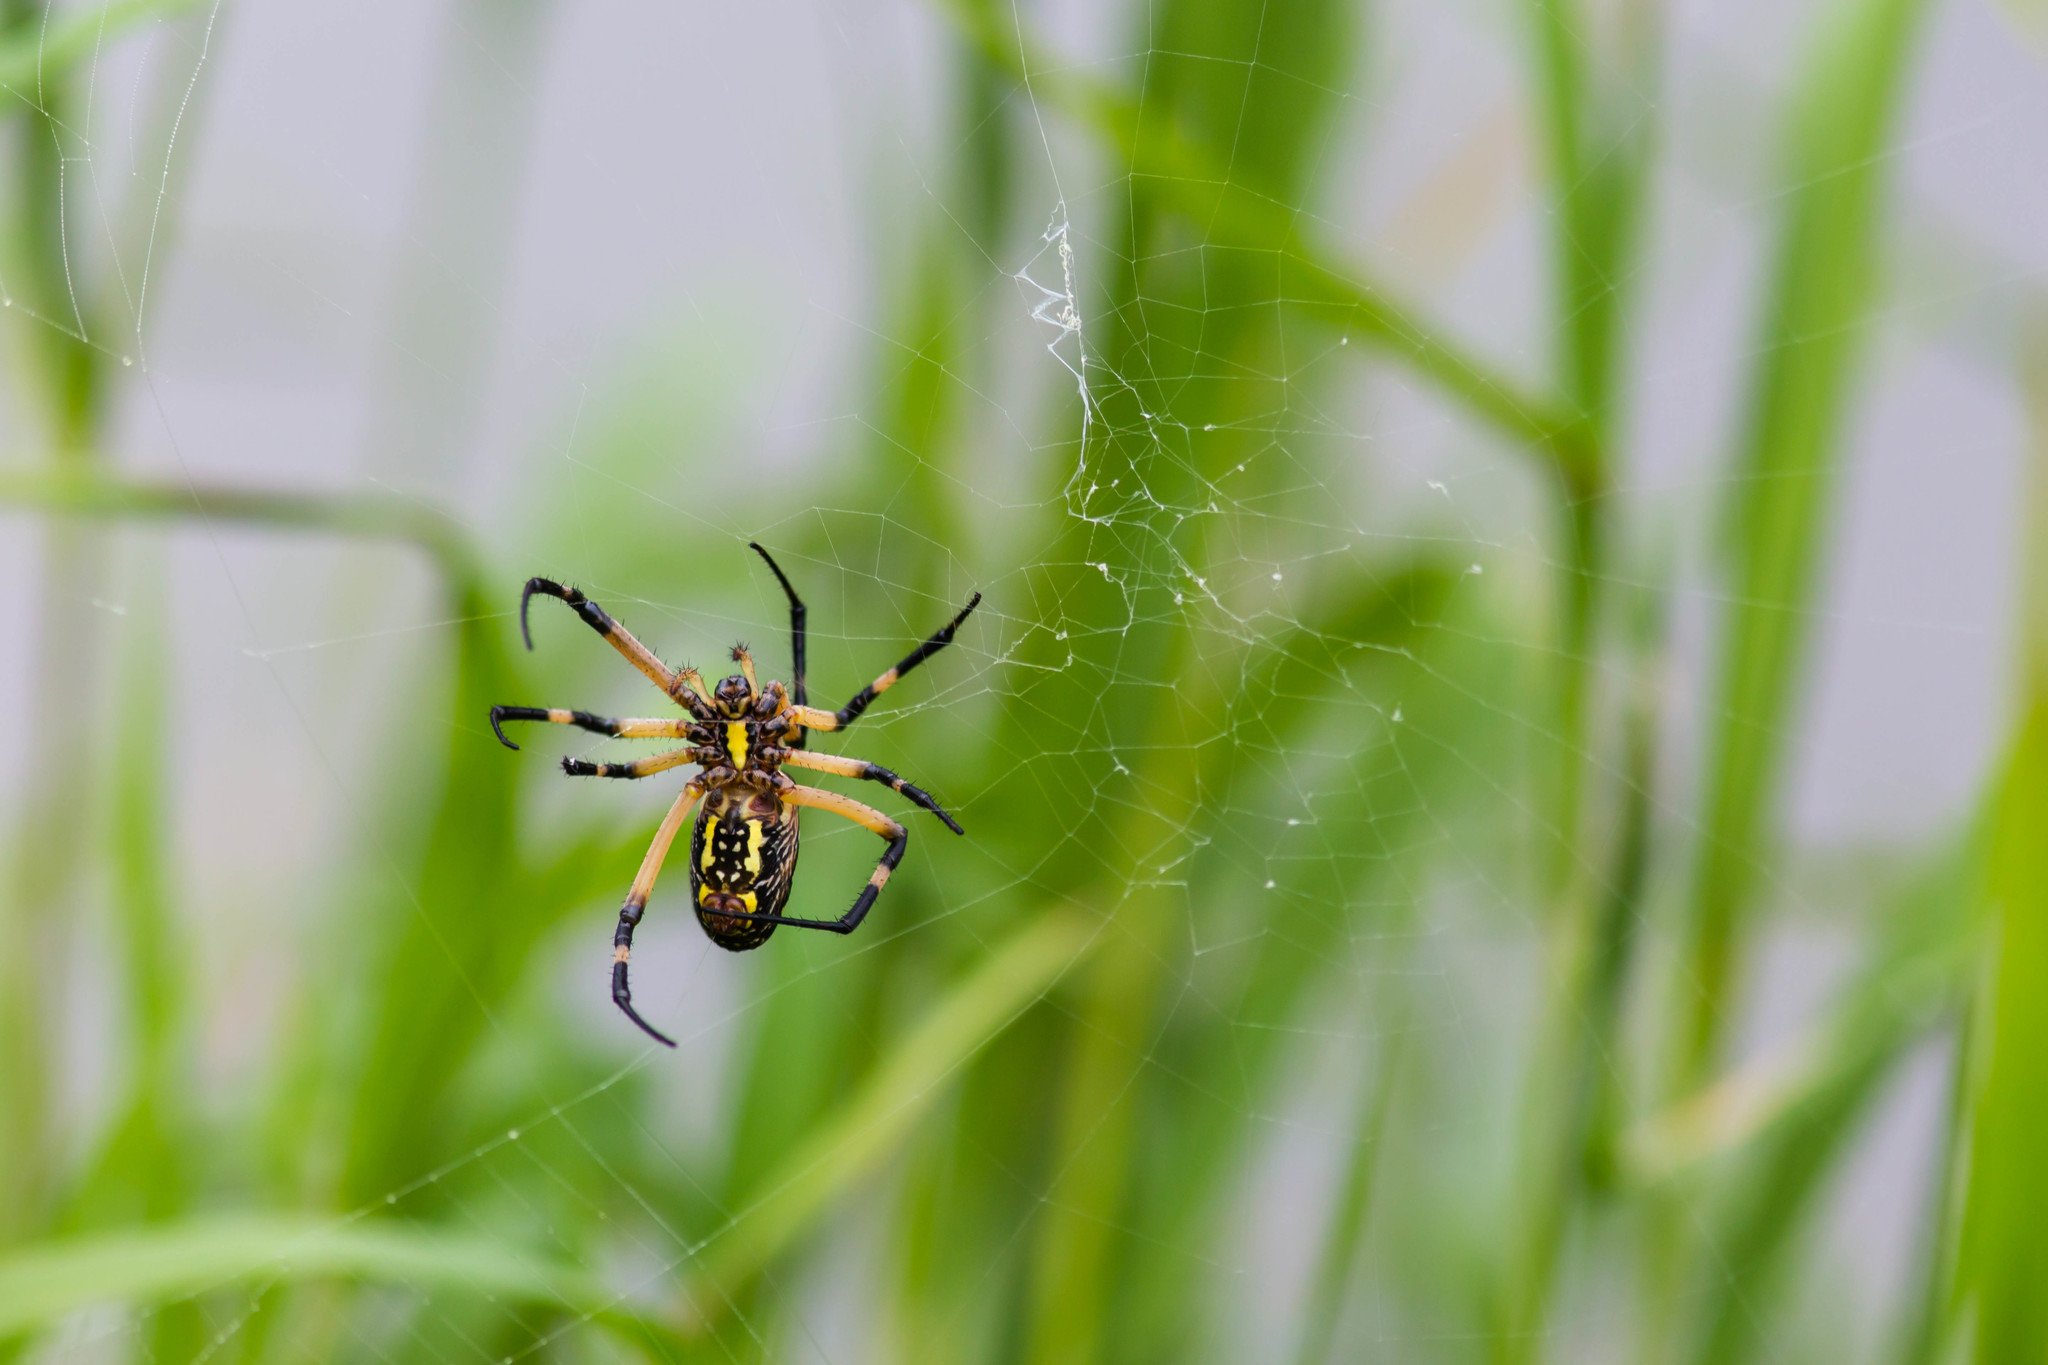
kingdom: Animalia
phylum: Arthropoda
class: Arachnida
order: Araneae
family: Araneidae
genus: Argiope
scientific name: Argiope aurantia
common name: Orb weavers
